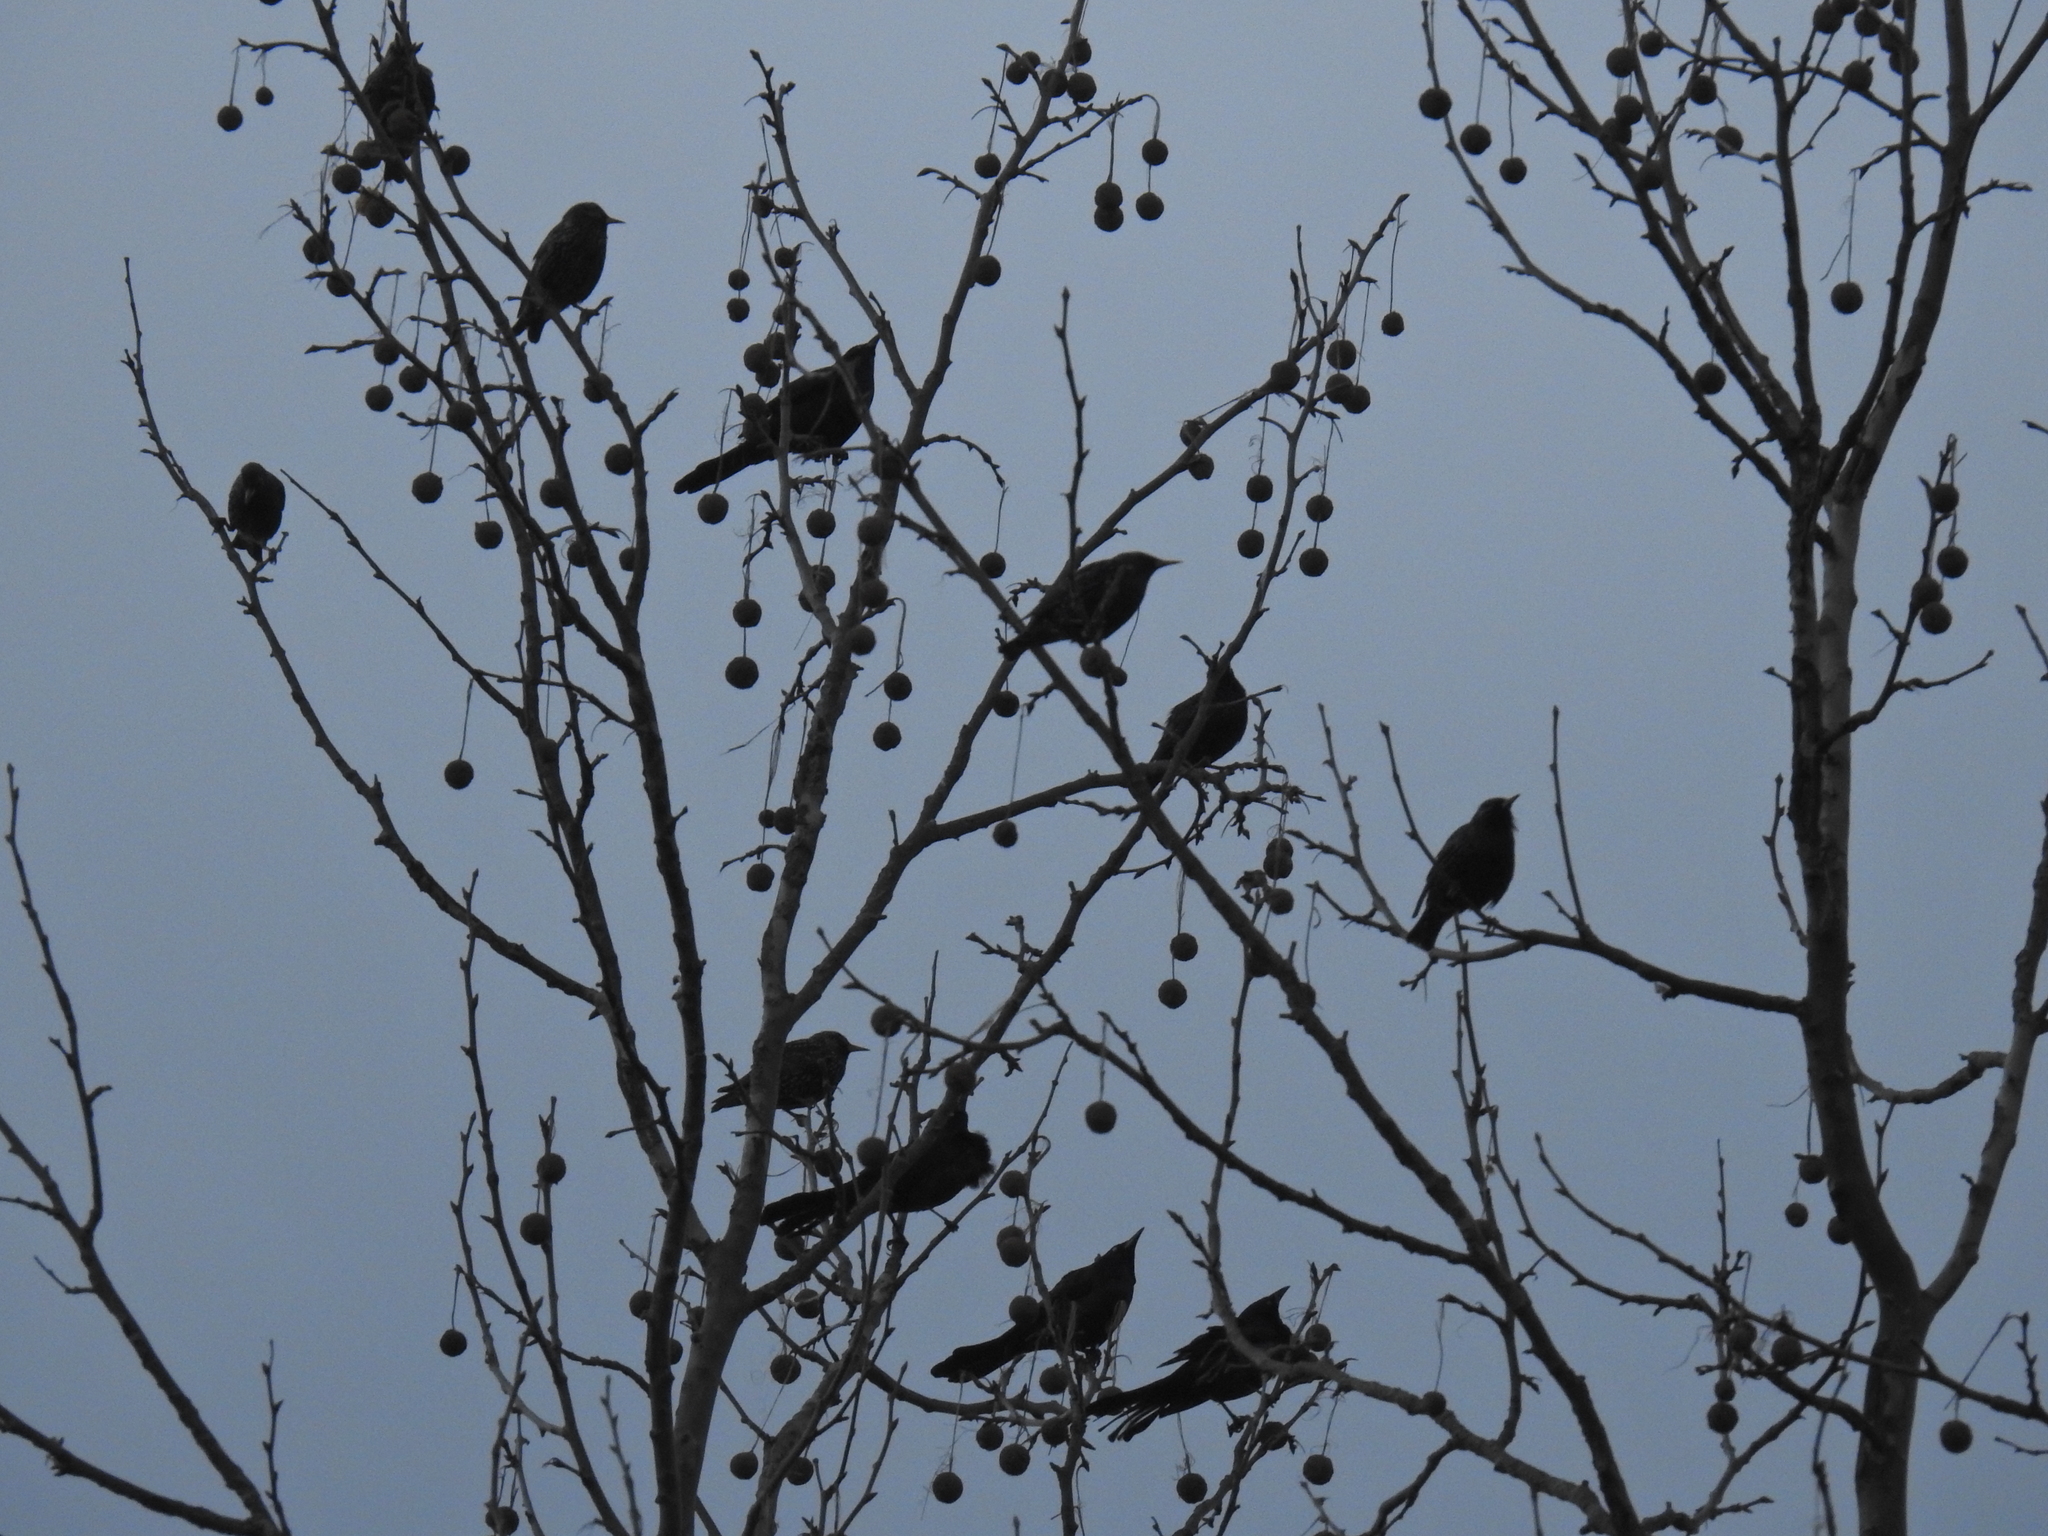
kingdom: Animalia
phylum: Chordata
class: Aves
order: Passeriformes
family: Sturnidae
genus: Sturnus
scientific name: Sturnus vulgaris
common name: Common starling
